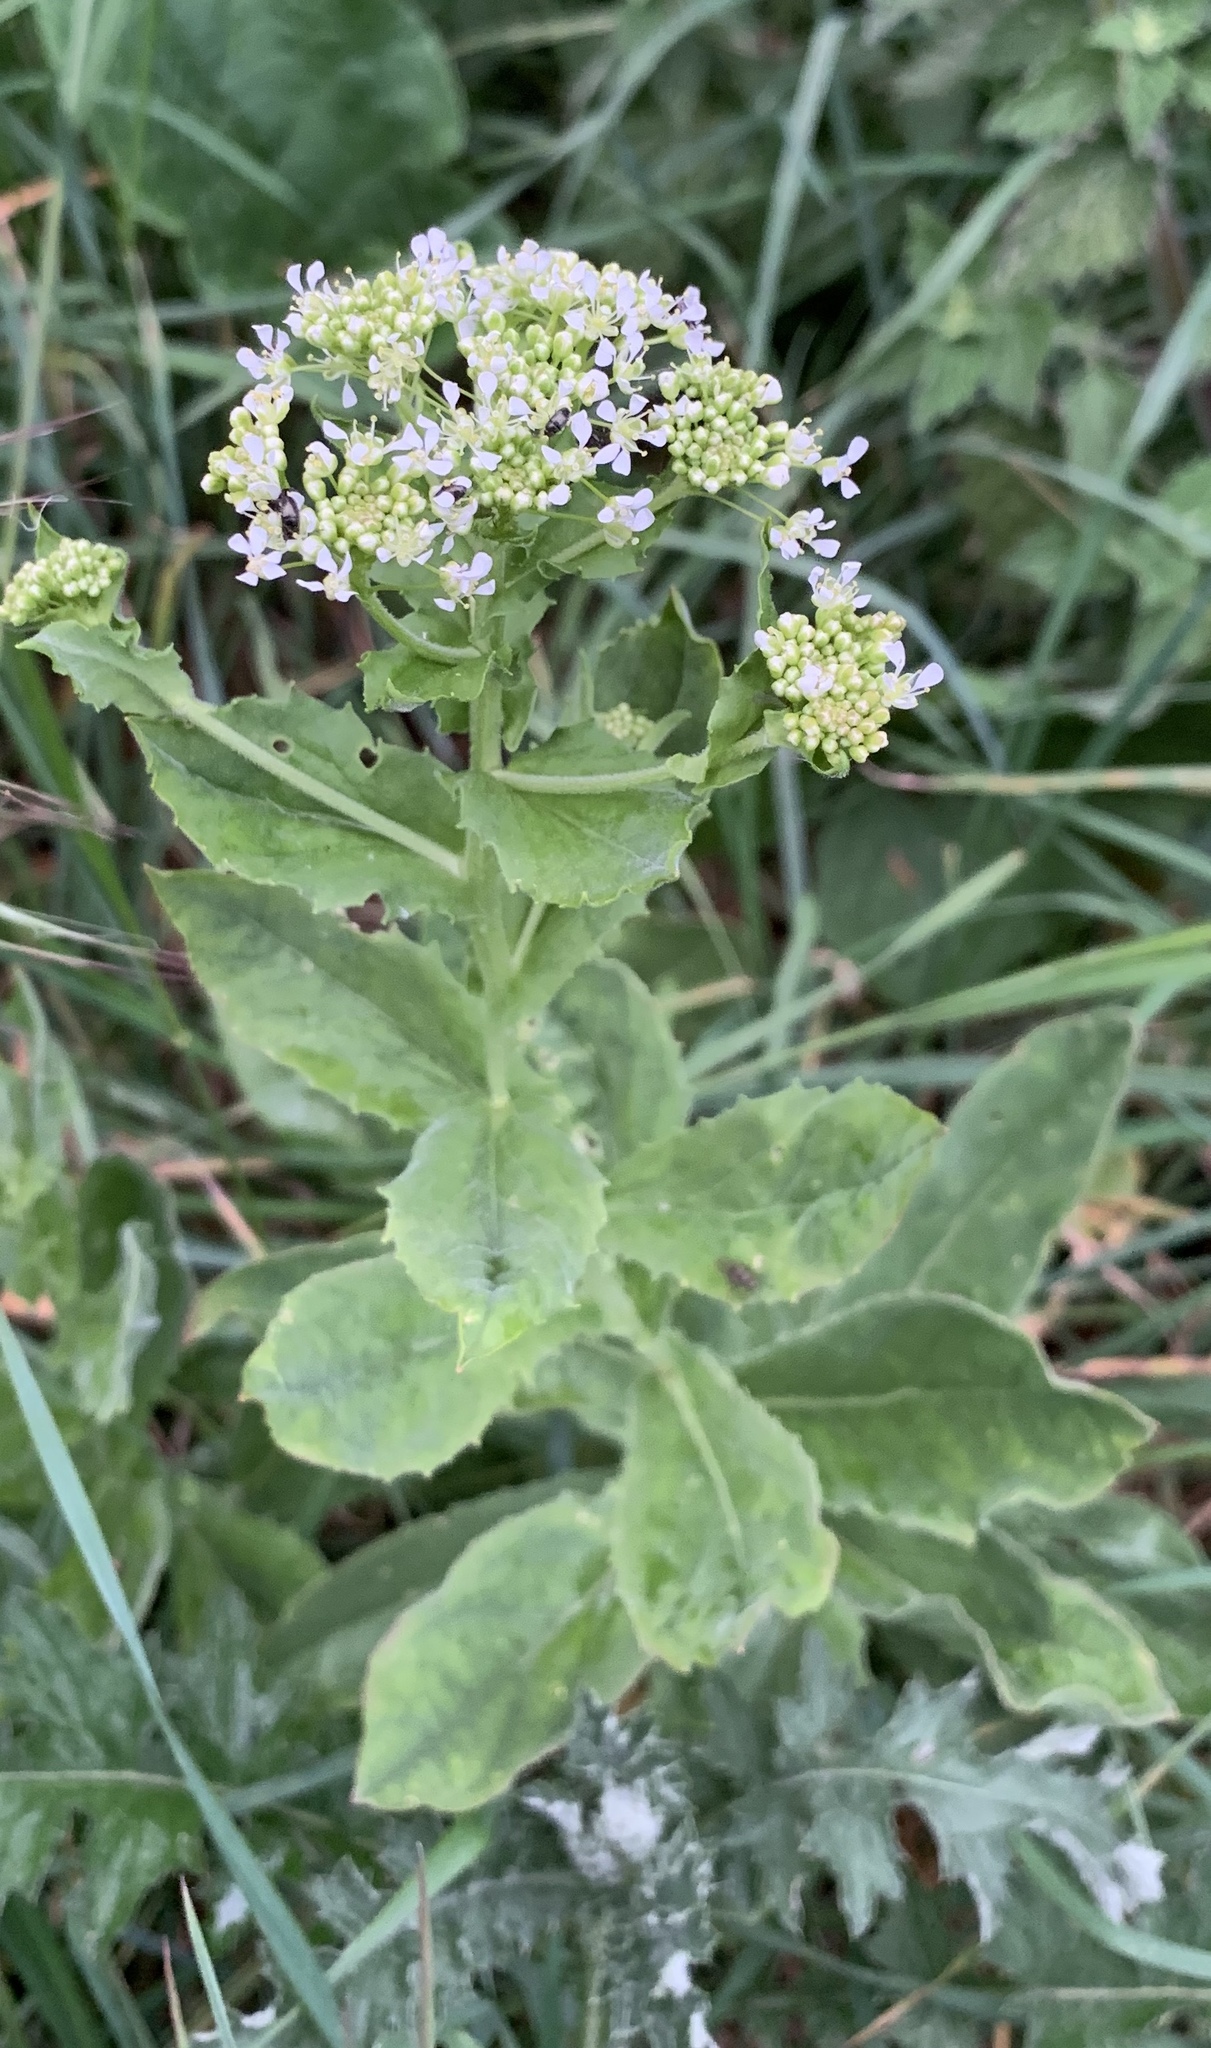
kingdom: Plantae
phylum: Tracheophyta
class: Magnoliopsida
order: Brassicales
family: Brassicaceae
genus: Lepidium
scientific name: Lepidium draba
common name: Hoary cress
